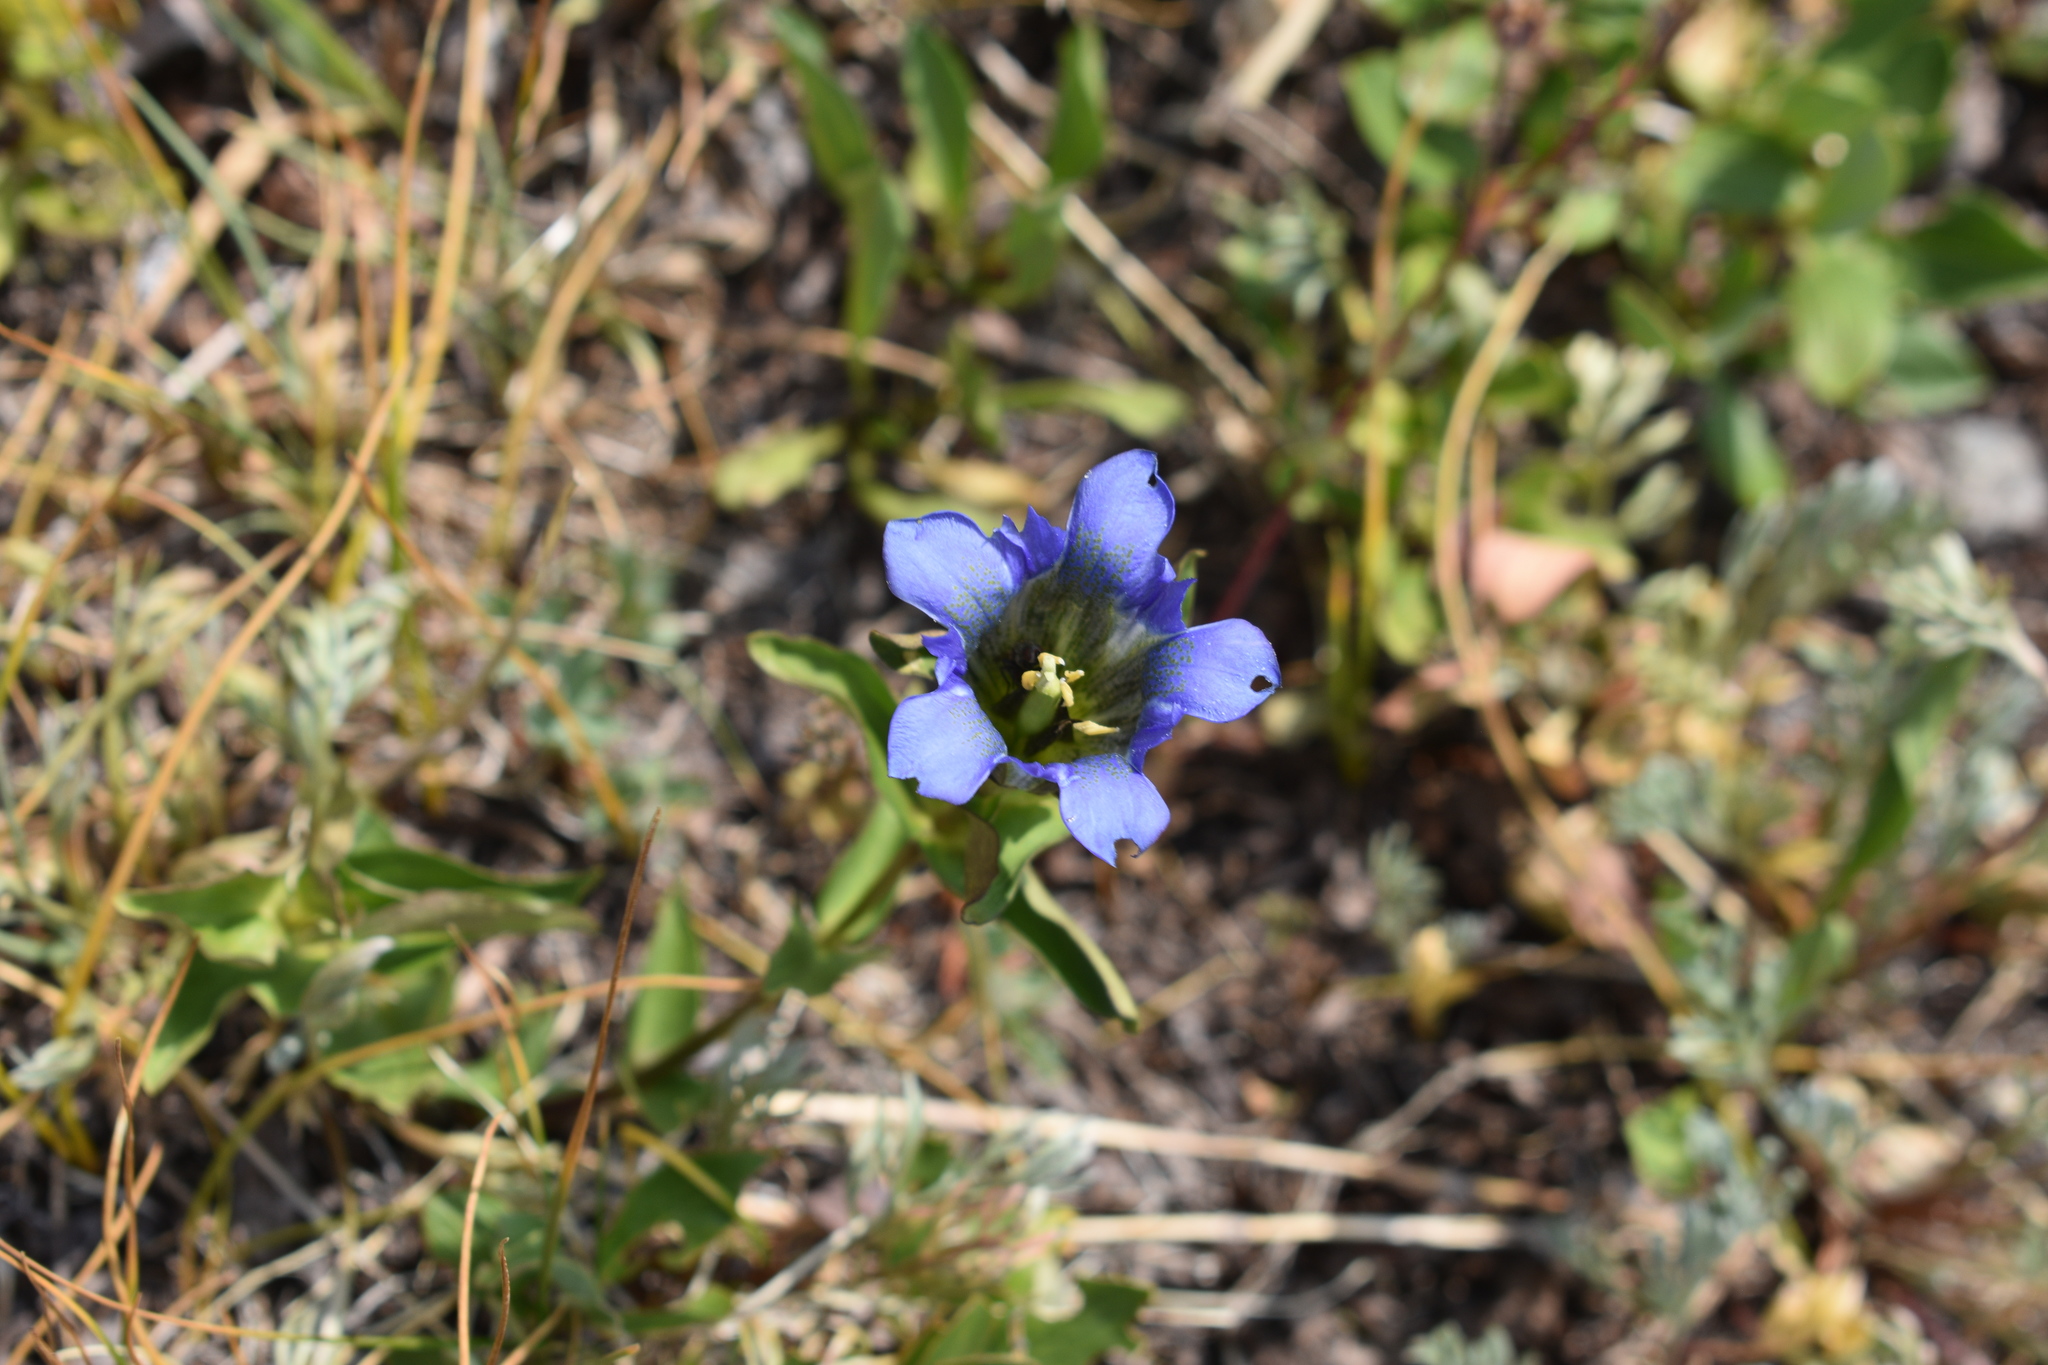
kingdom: Plantae
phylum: Tracheophyta
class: Magnoliopsida
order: Gentianales
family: Gentianaceae
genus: Gentiana
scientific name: Gentiana parryi
